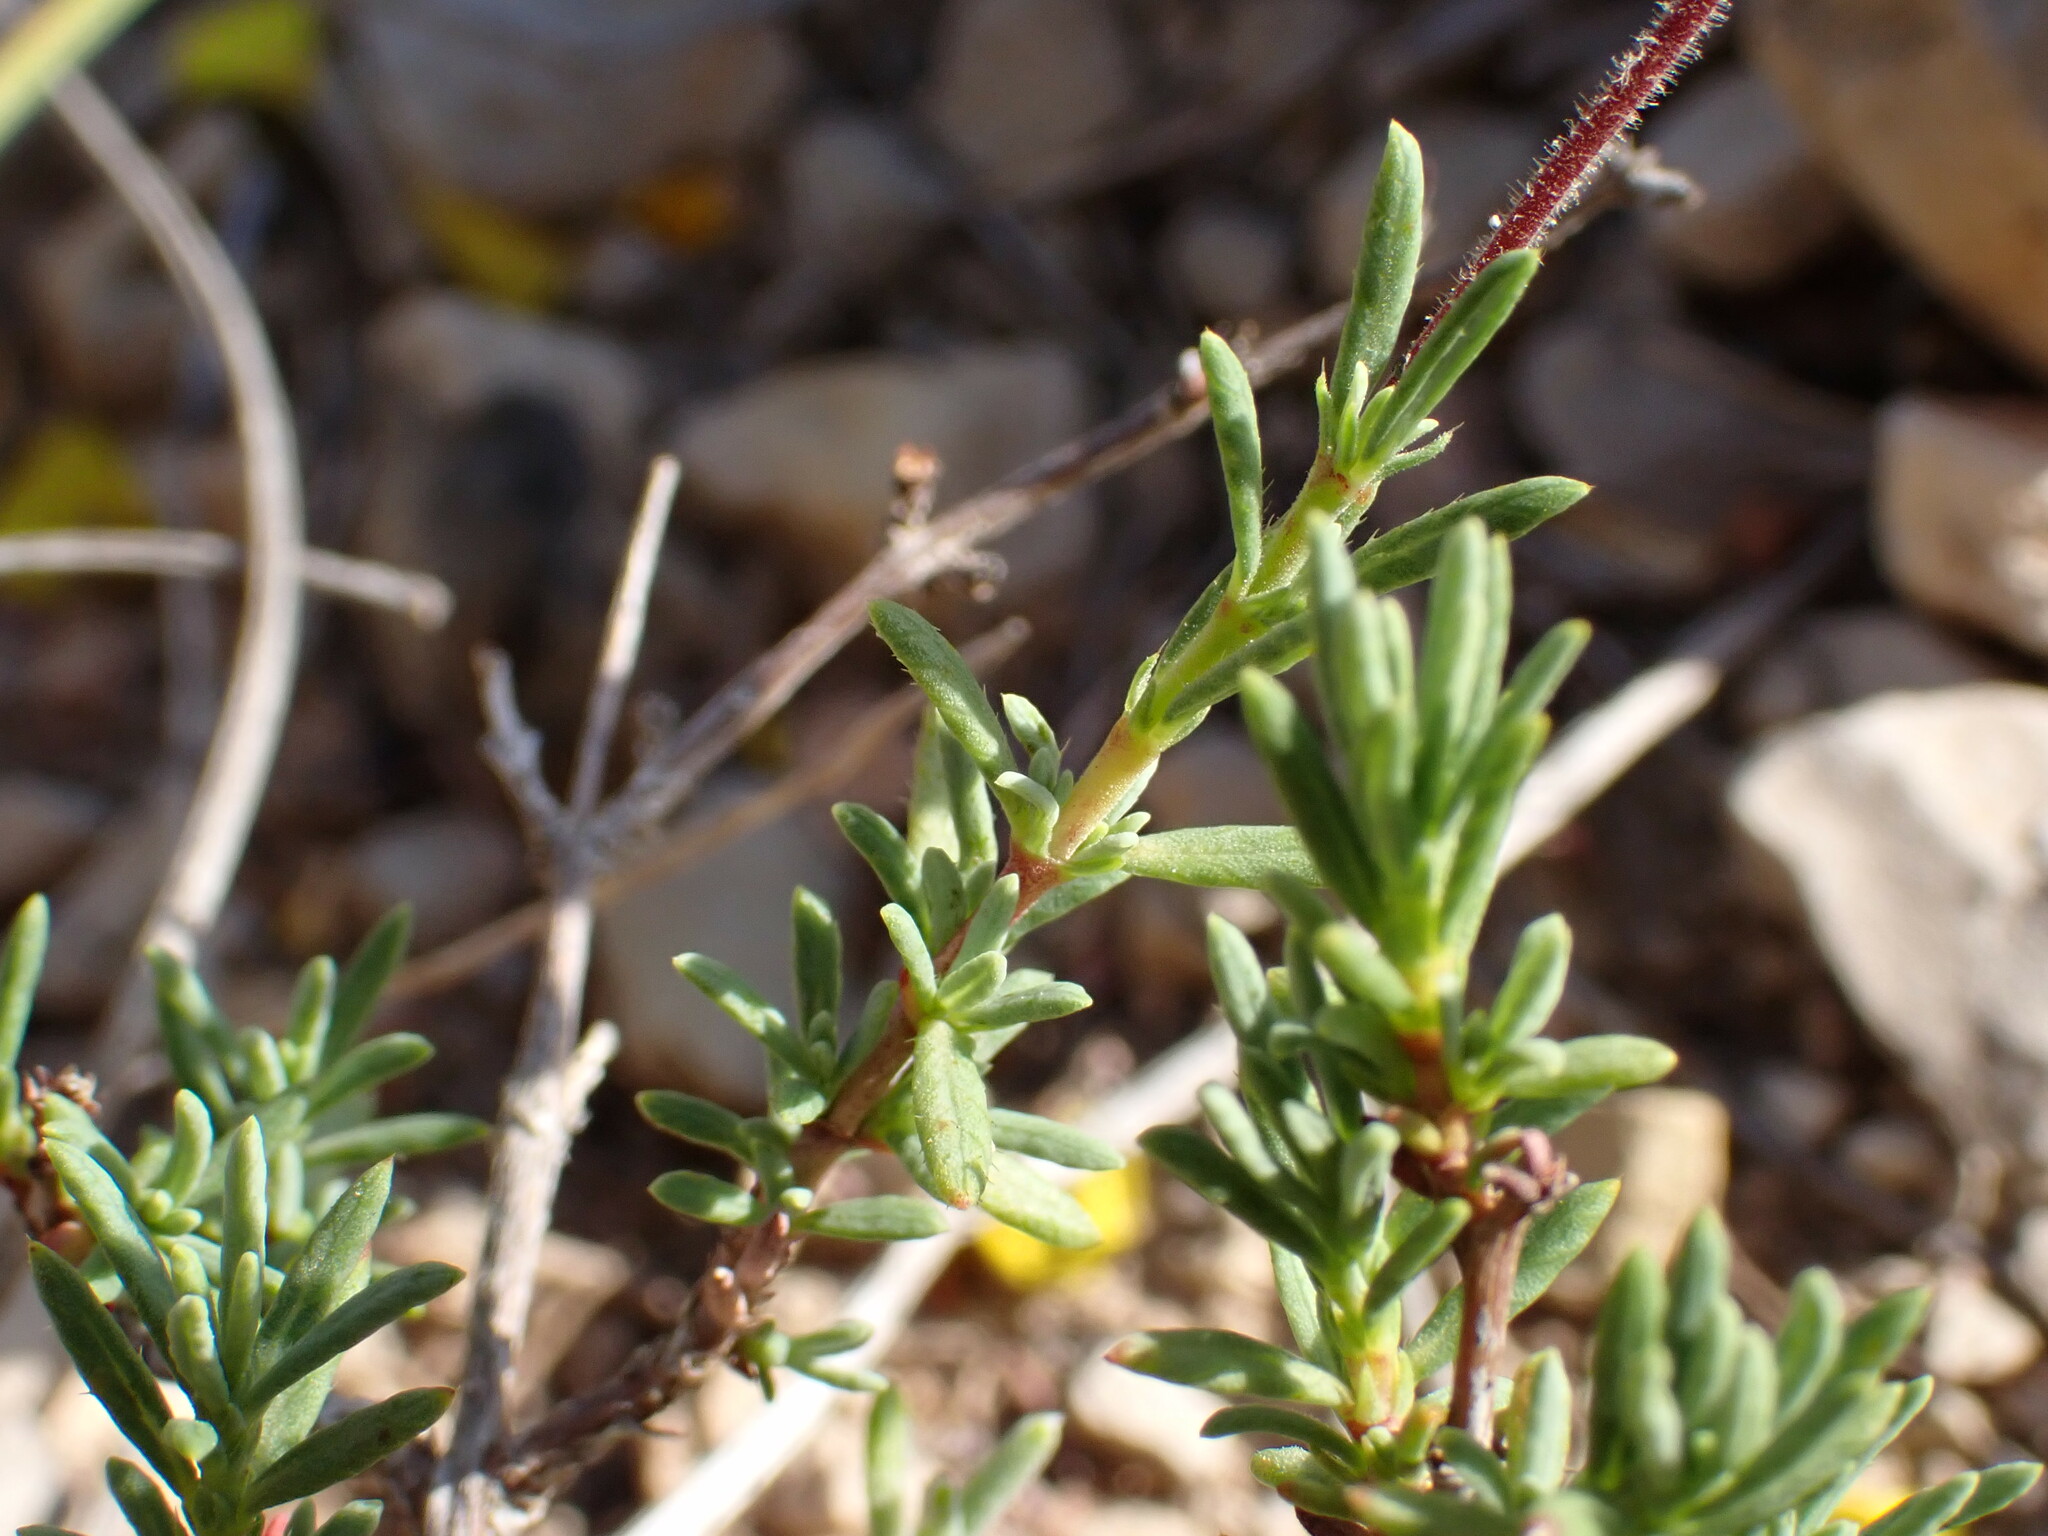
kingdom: Plantae
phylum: Tracheophyta
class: Magnoliopsida
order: Malvales
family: Cistaceae
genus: Fumana
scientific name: Fumana laevis
